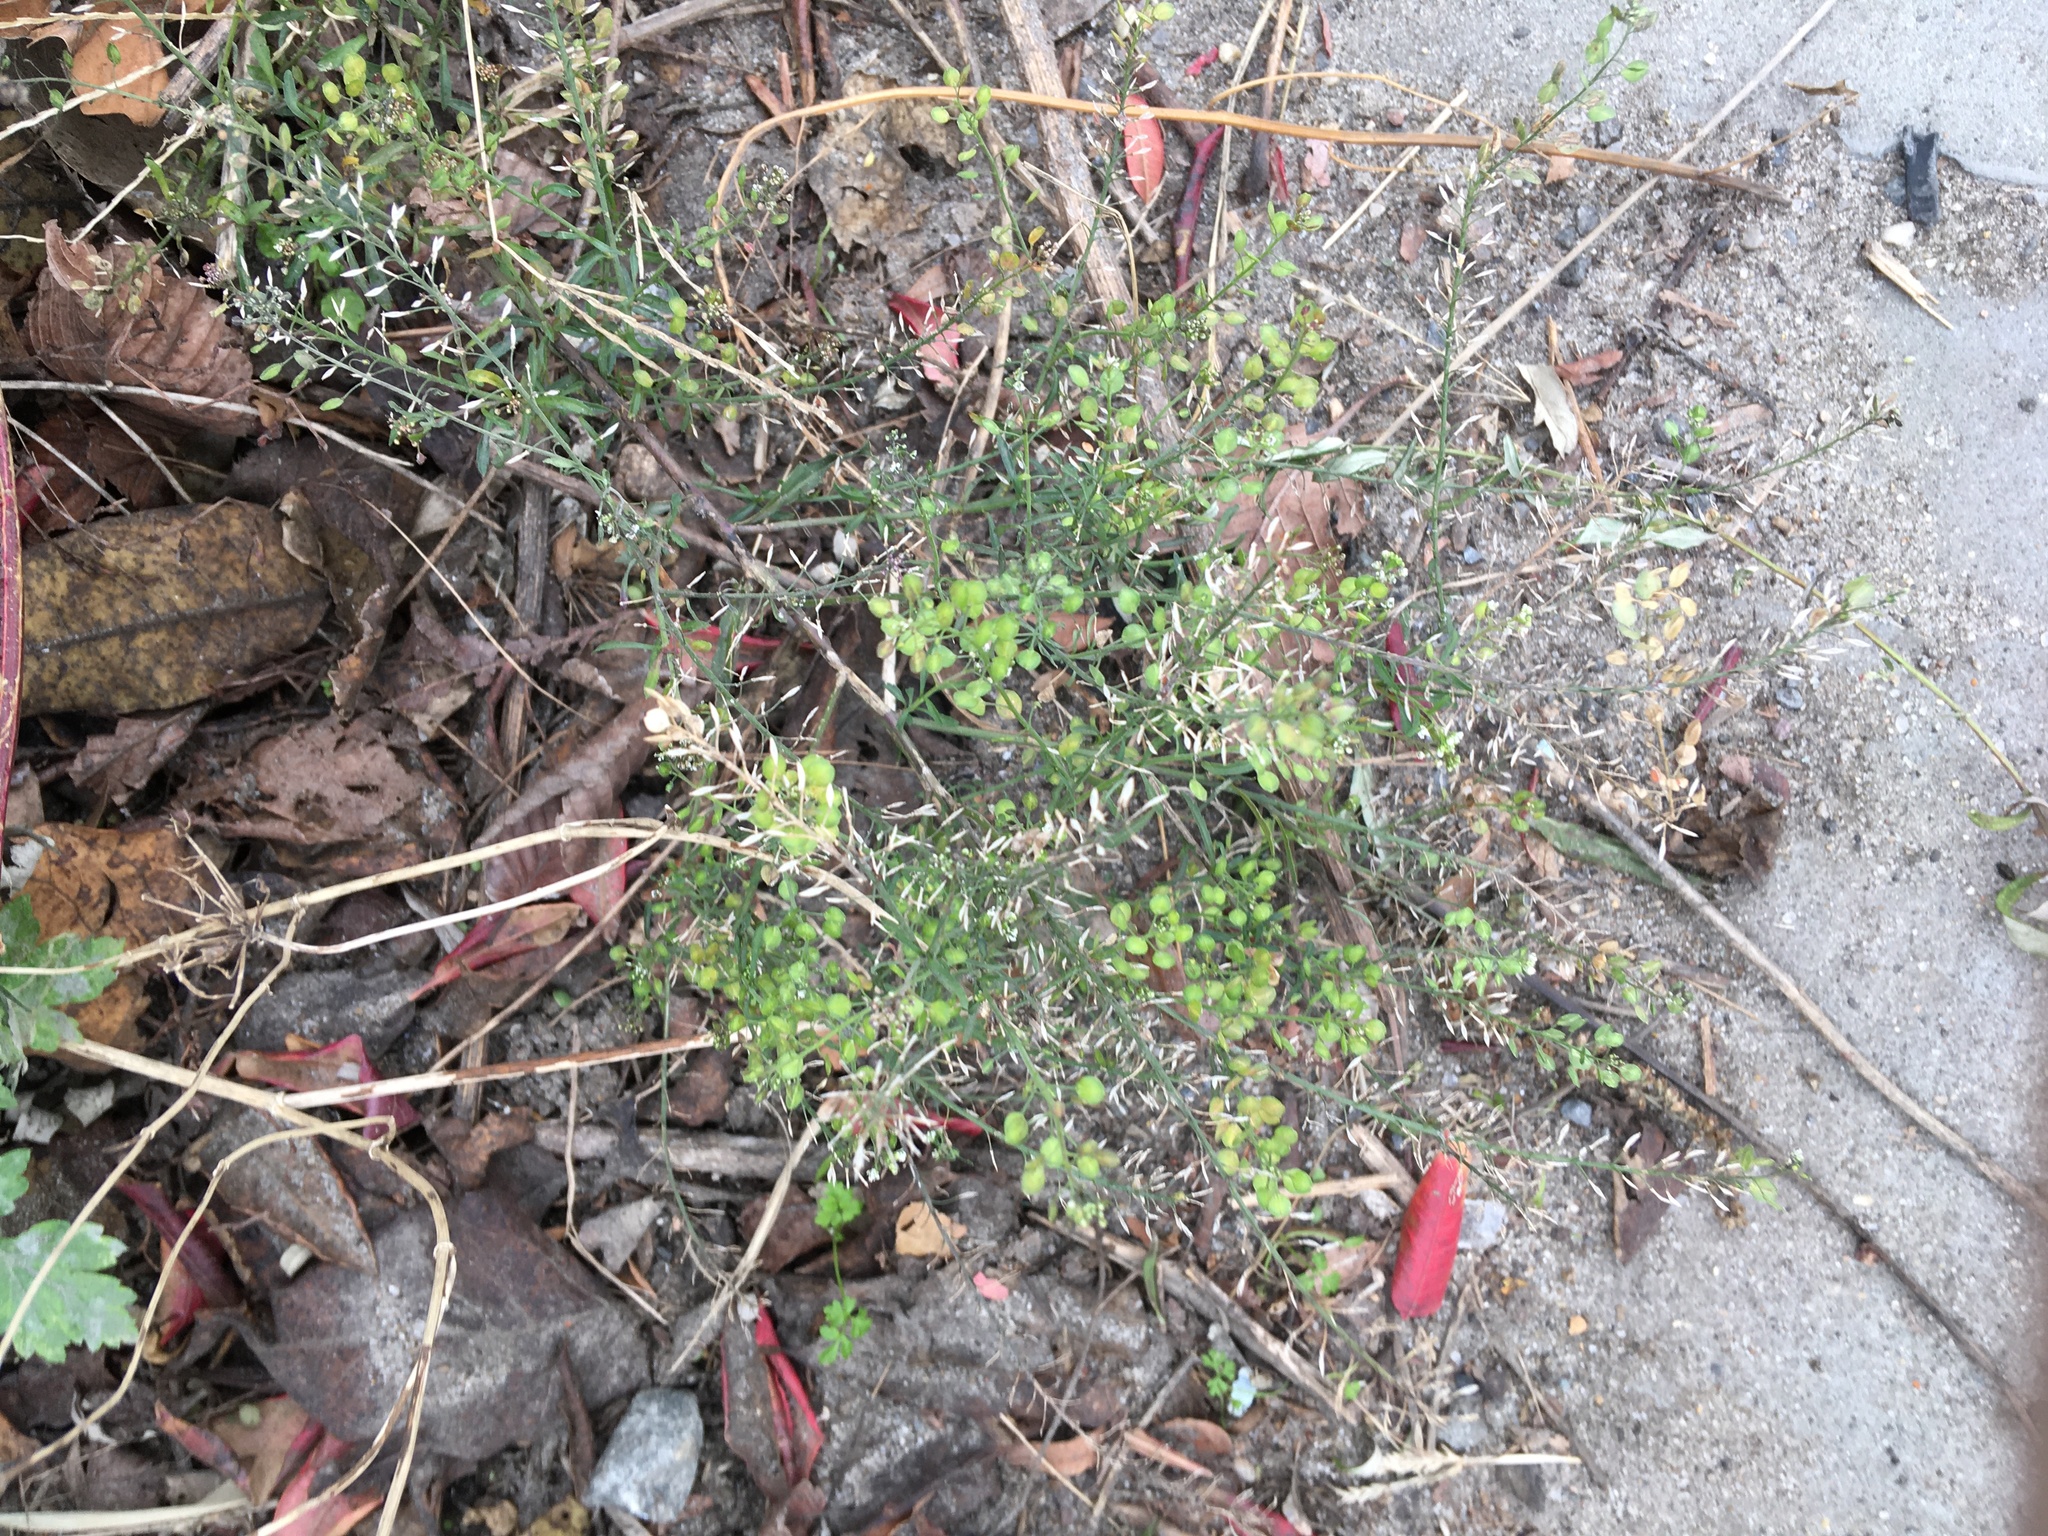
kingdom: Plantae
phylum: Tracheophyta
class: Magnoliopsida
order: Brassicales
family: Brassicaceae
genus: Lepidium
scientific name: Lepidium virginicum
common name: Least pepperwort
